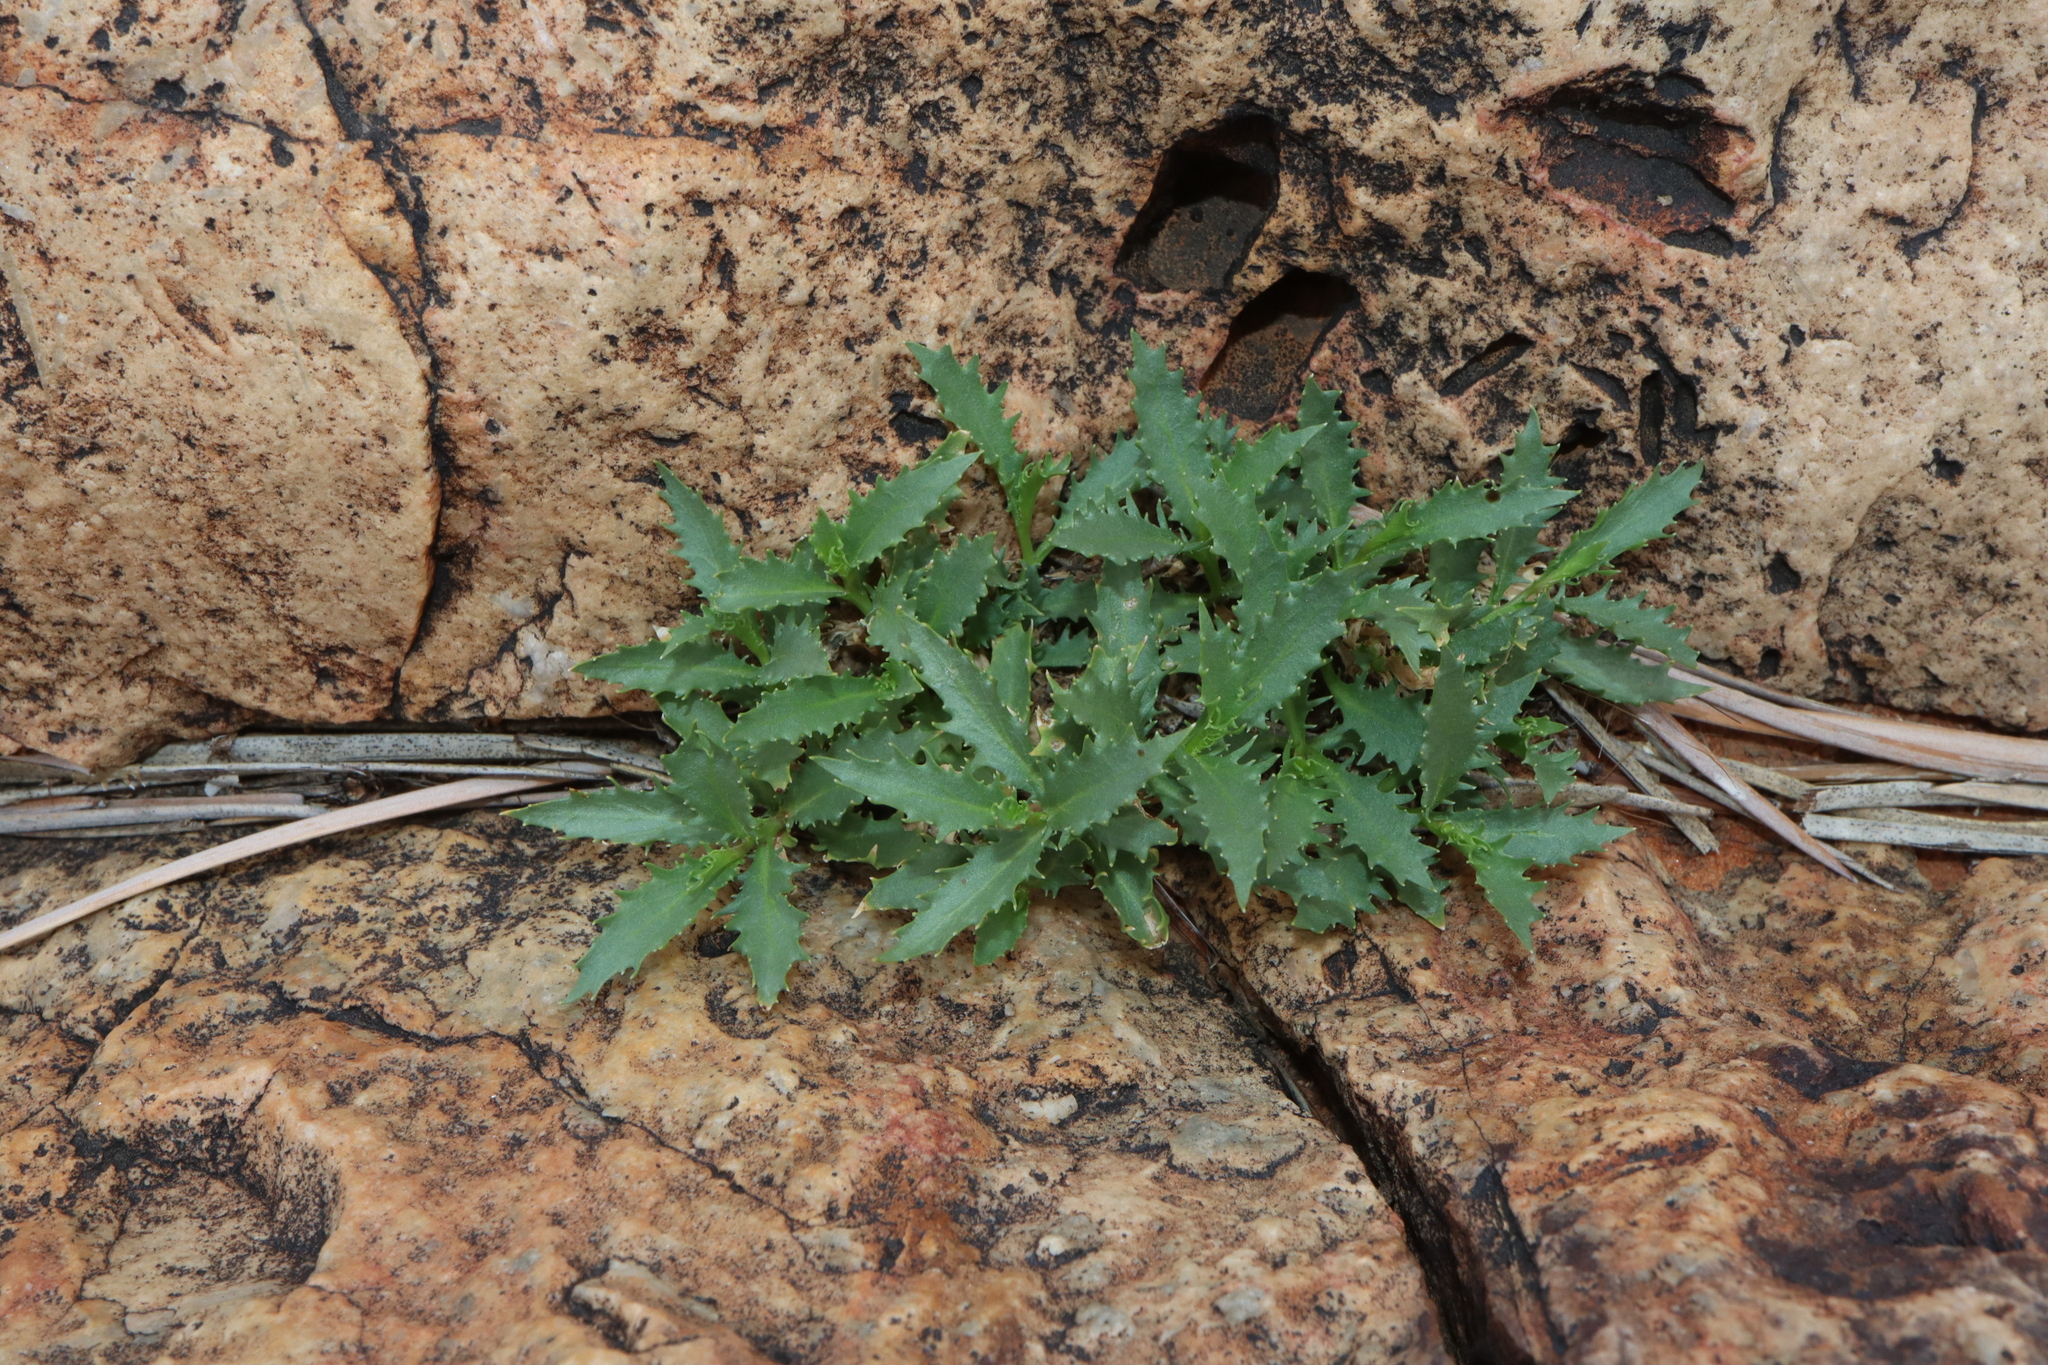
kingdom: Plantae
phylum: Tracheophyta
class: Magnoliopsida
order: Asterales
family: Campanulaceae
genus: Lithotoma
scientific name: Lithotoma petraea
